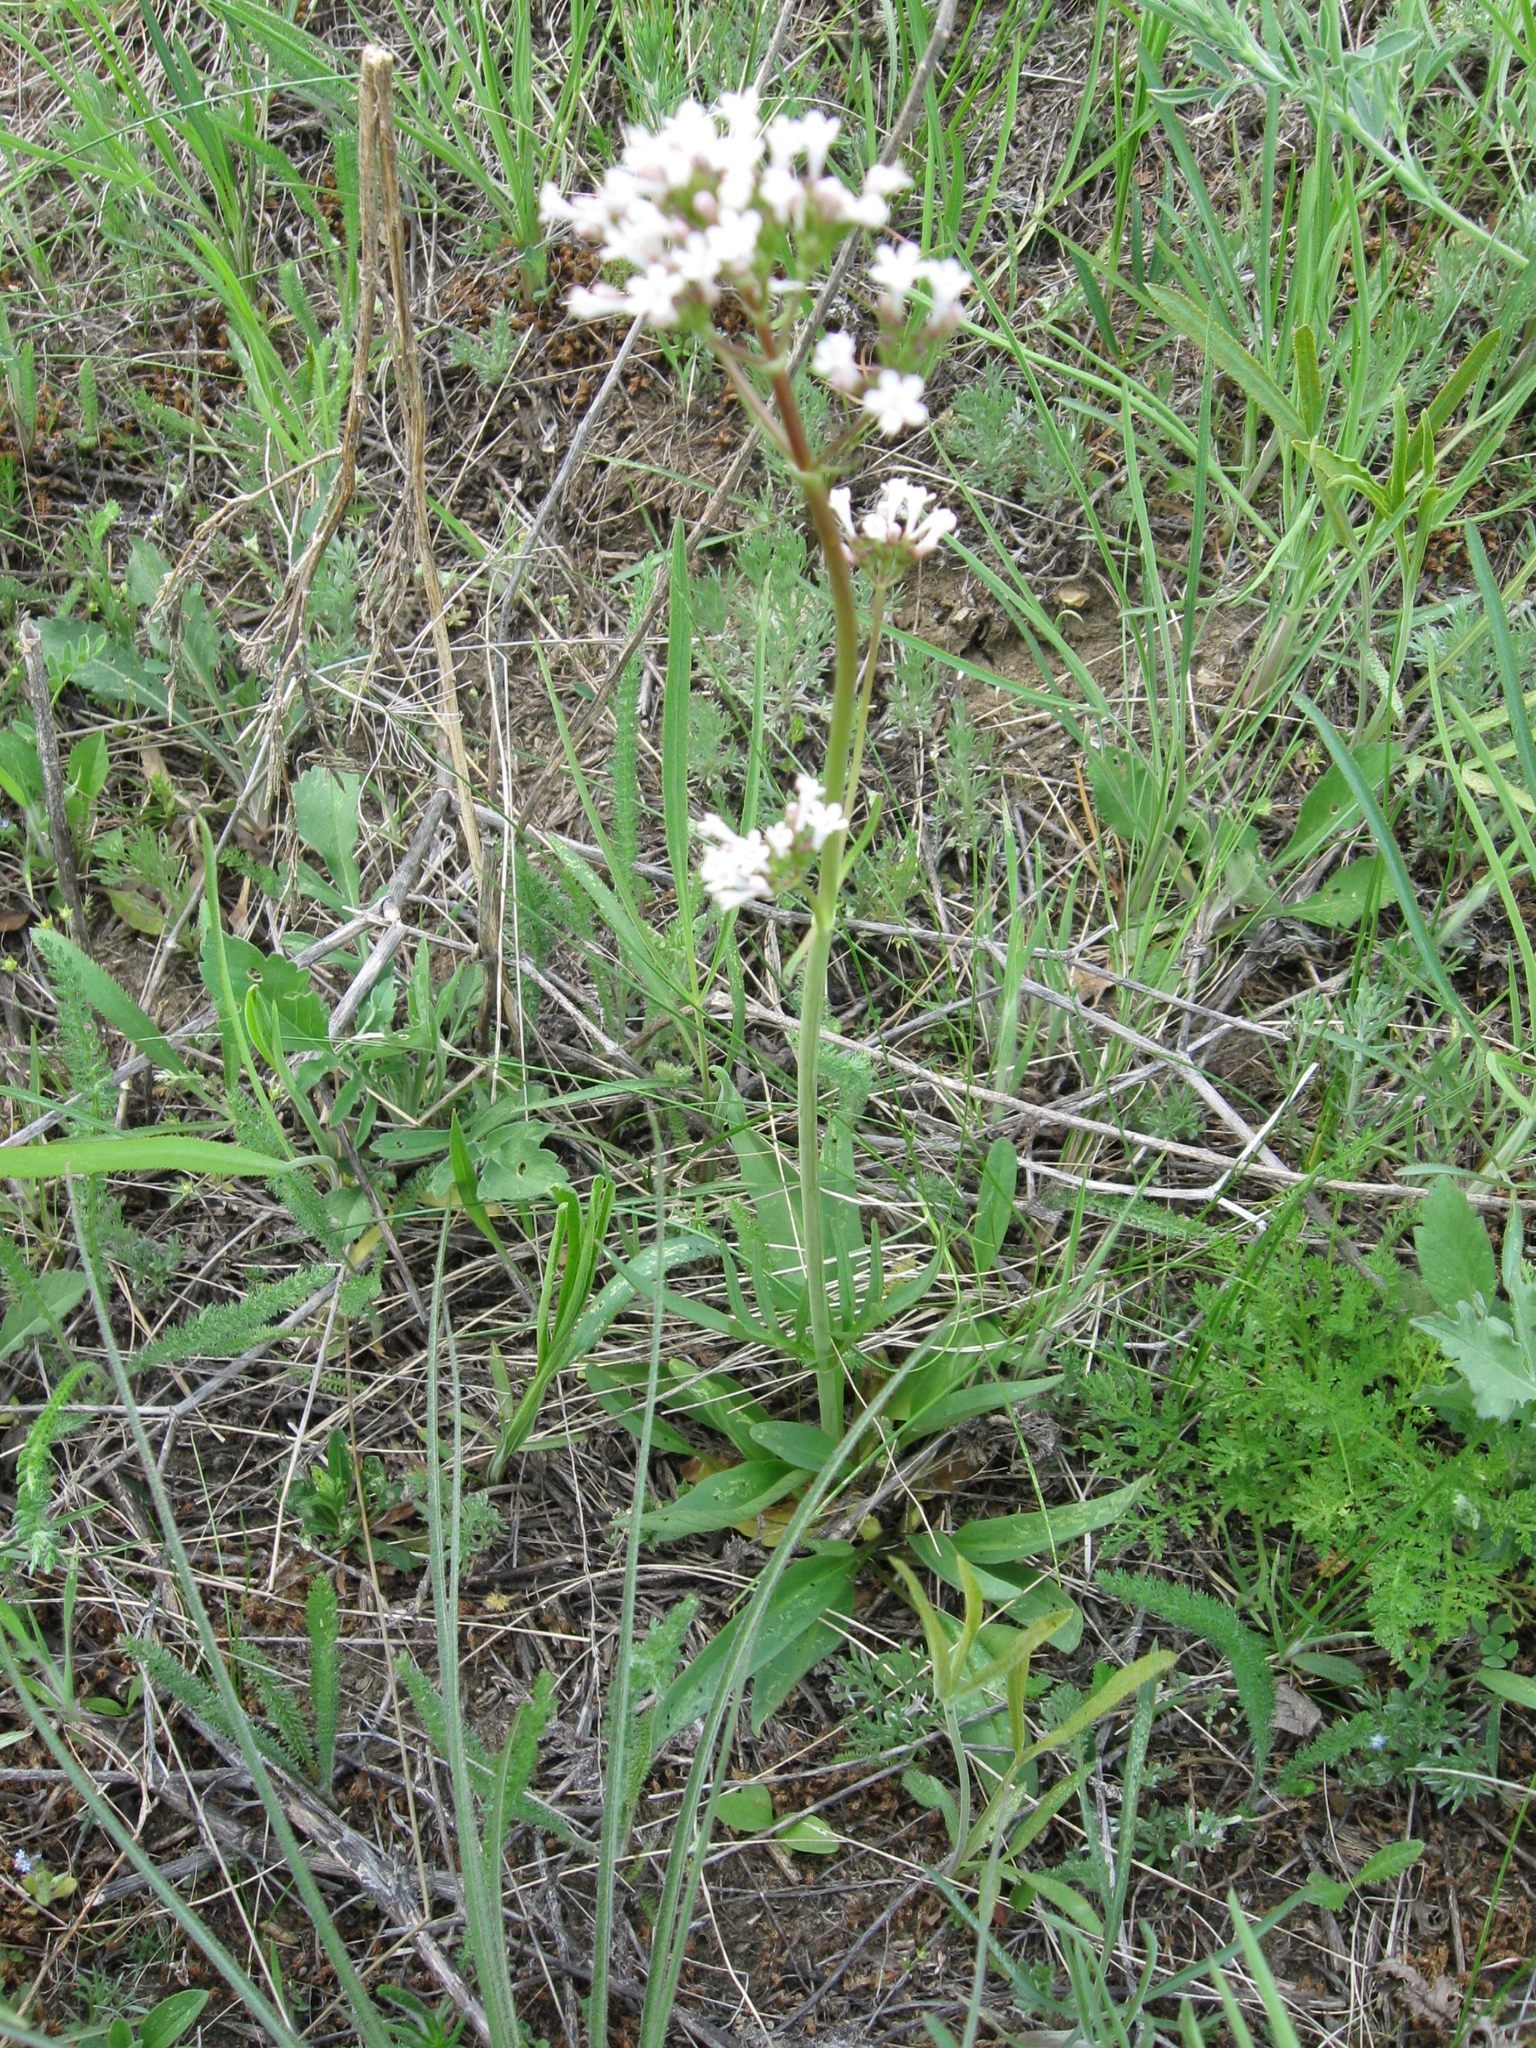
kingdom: Plantae
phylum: Tracheophyta
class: Magnoliopsida
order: Dipsacales
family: Caprifoliaceae
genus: Valeriana
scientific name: Valeriana tuberosa
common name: Tuberous valerian
